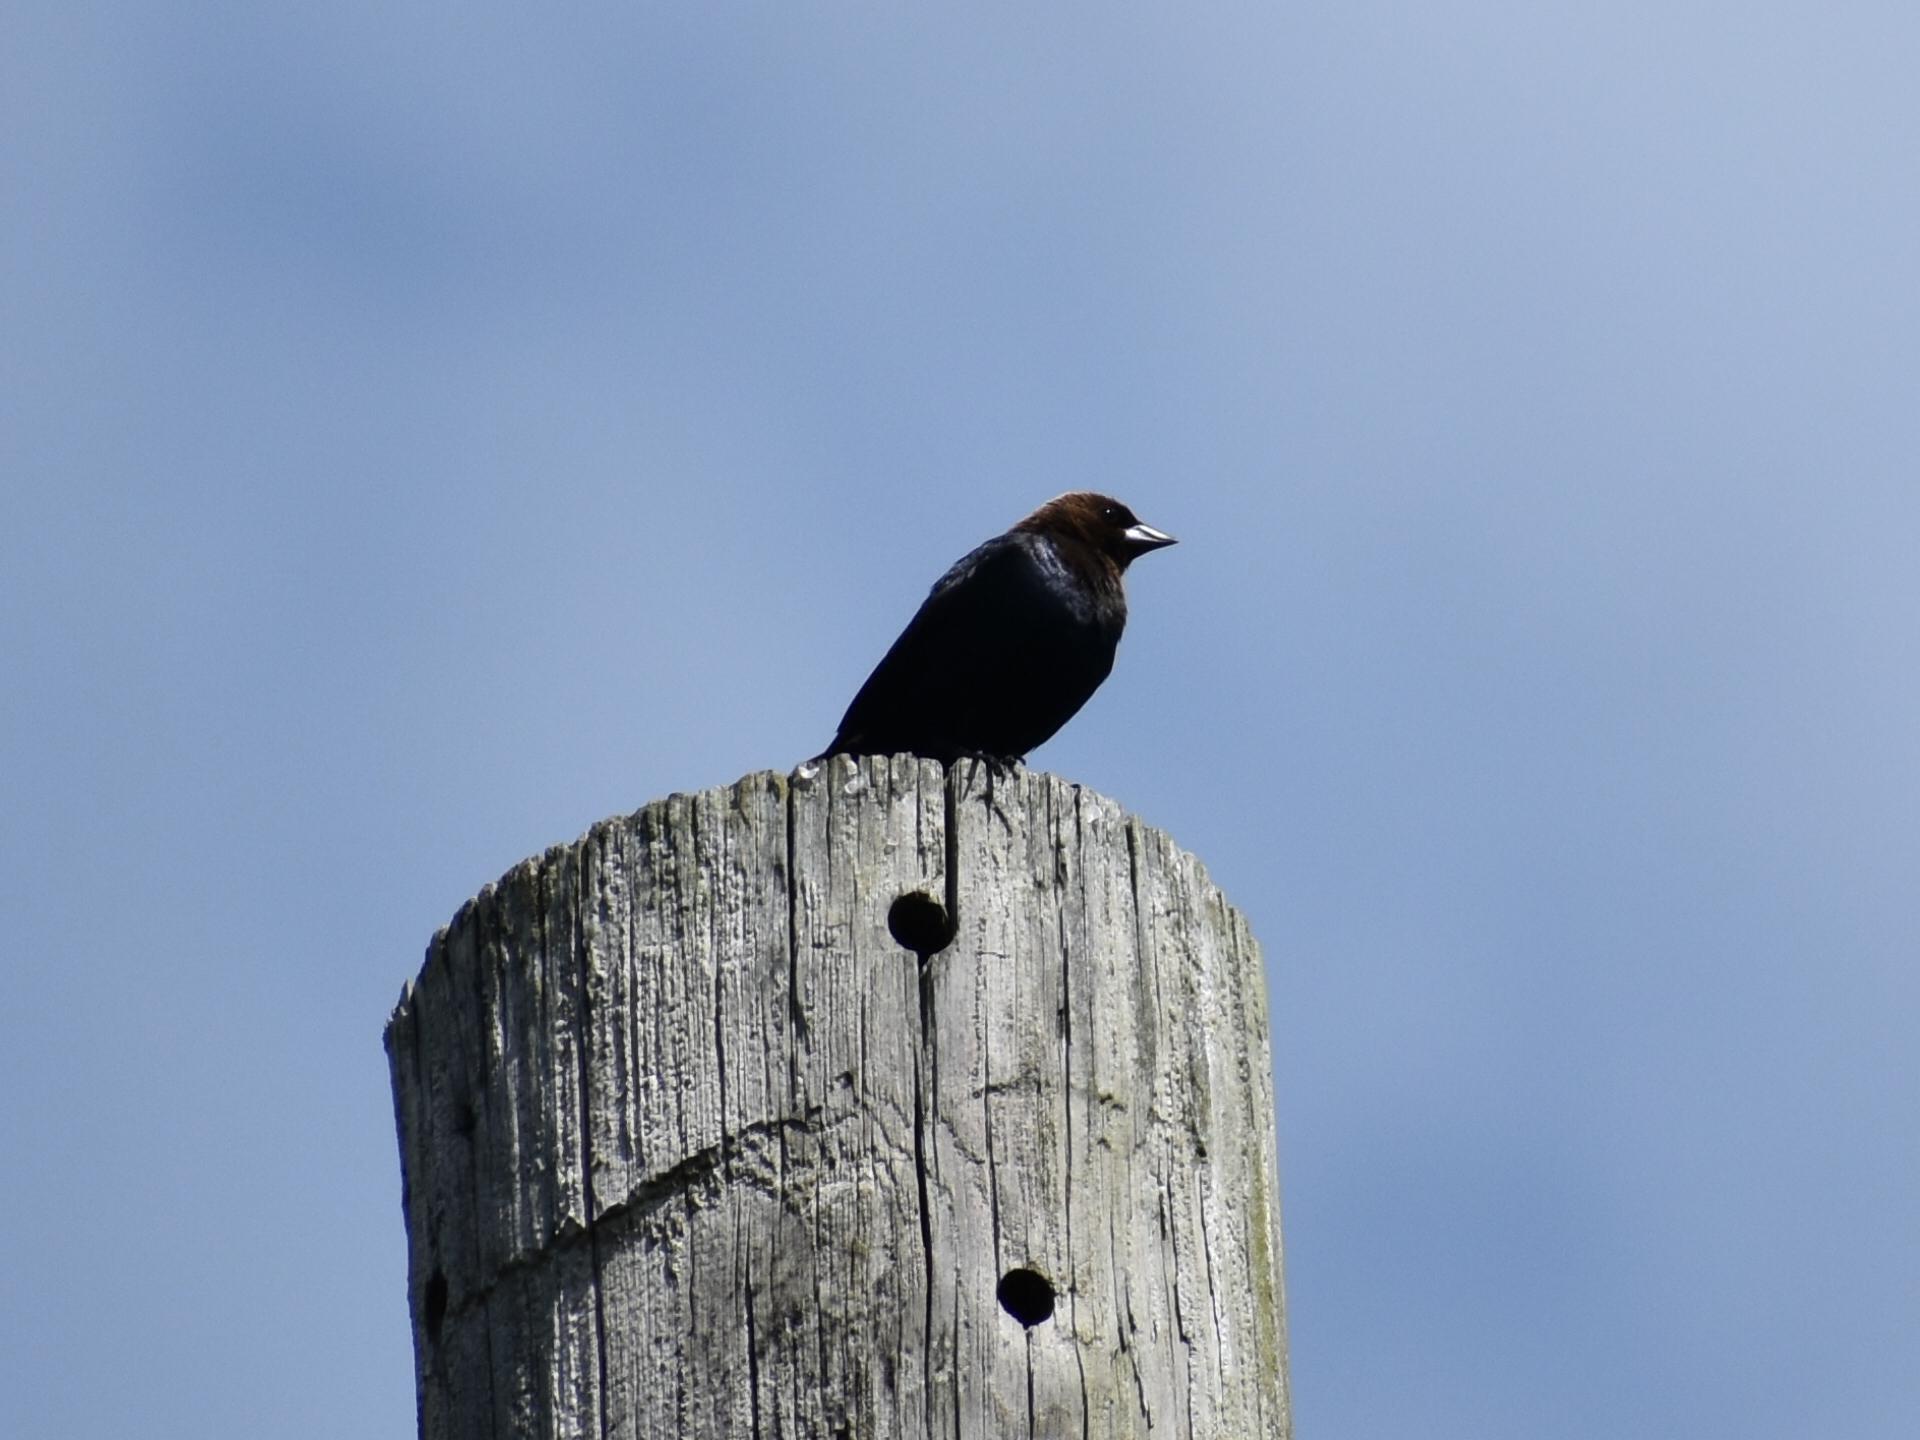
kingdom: Animalia
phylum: Chordata
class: Aves
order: Passeriformes
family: Icteridae
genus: Molothrus
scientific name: Molothrus ater
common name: Brown-headed cowbird
